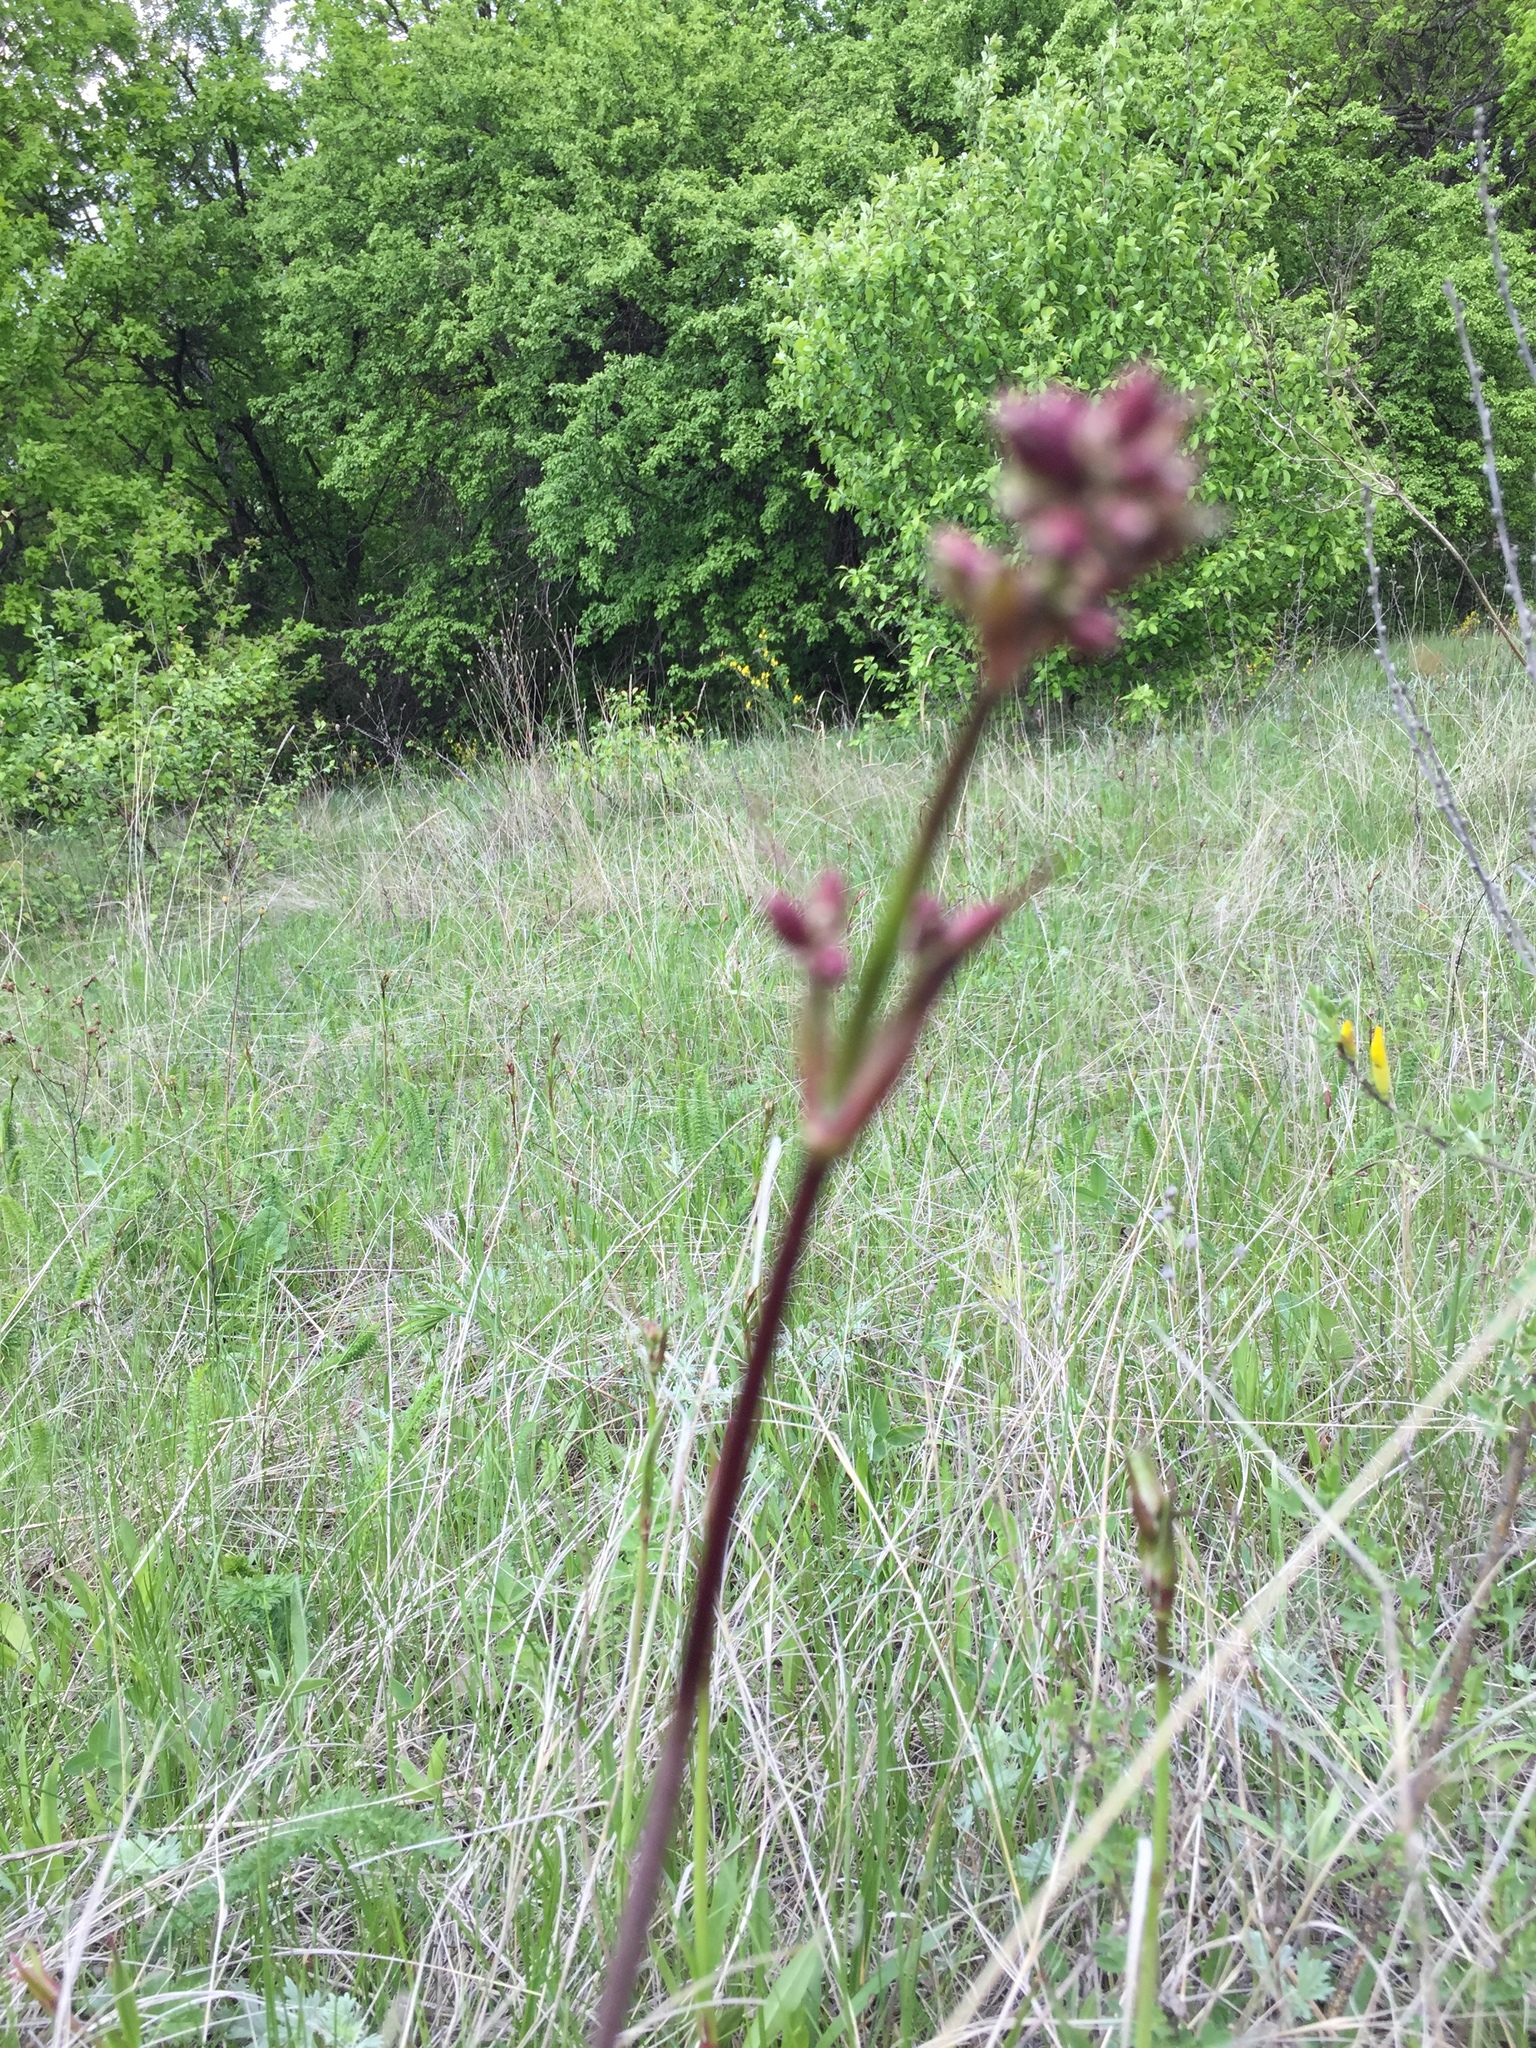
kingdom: Plantae
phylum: Tracheophyta
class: Magnoliopsida
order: Caryophyllales
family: Caryophyllaceae
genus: Viscaria
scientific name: Viscaria vulgaris
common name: Clammy campion
